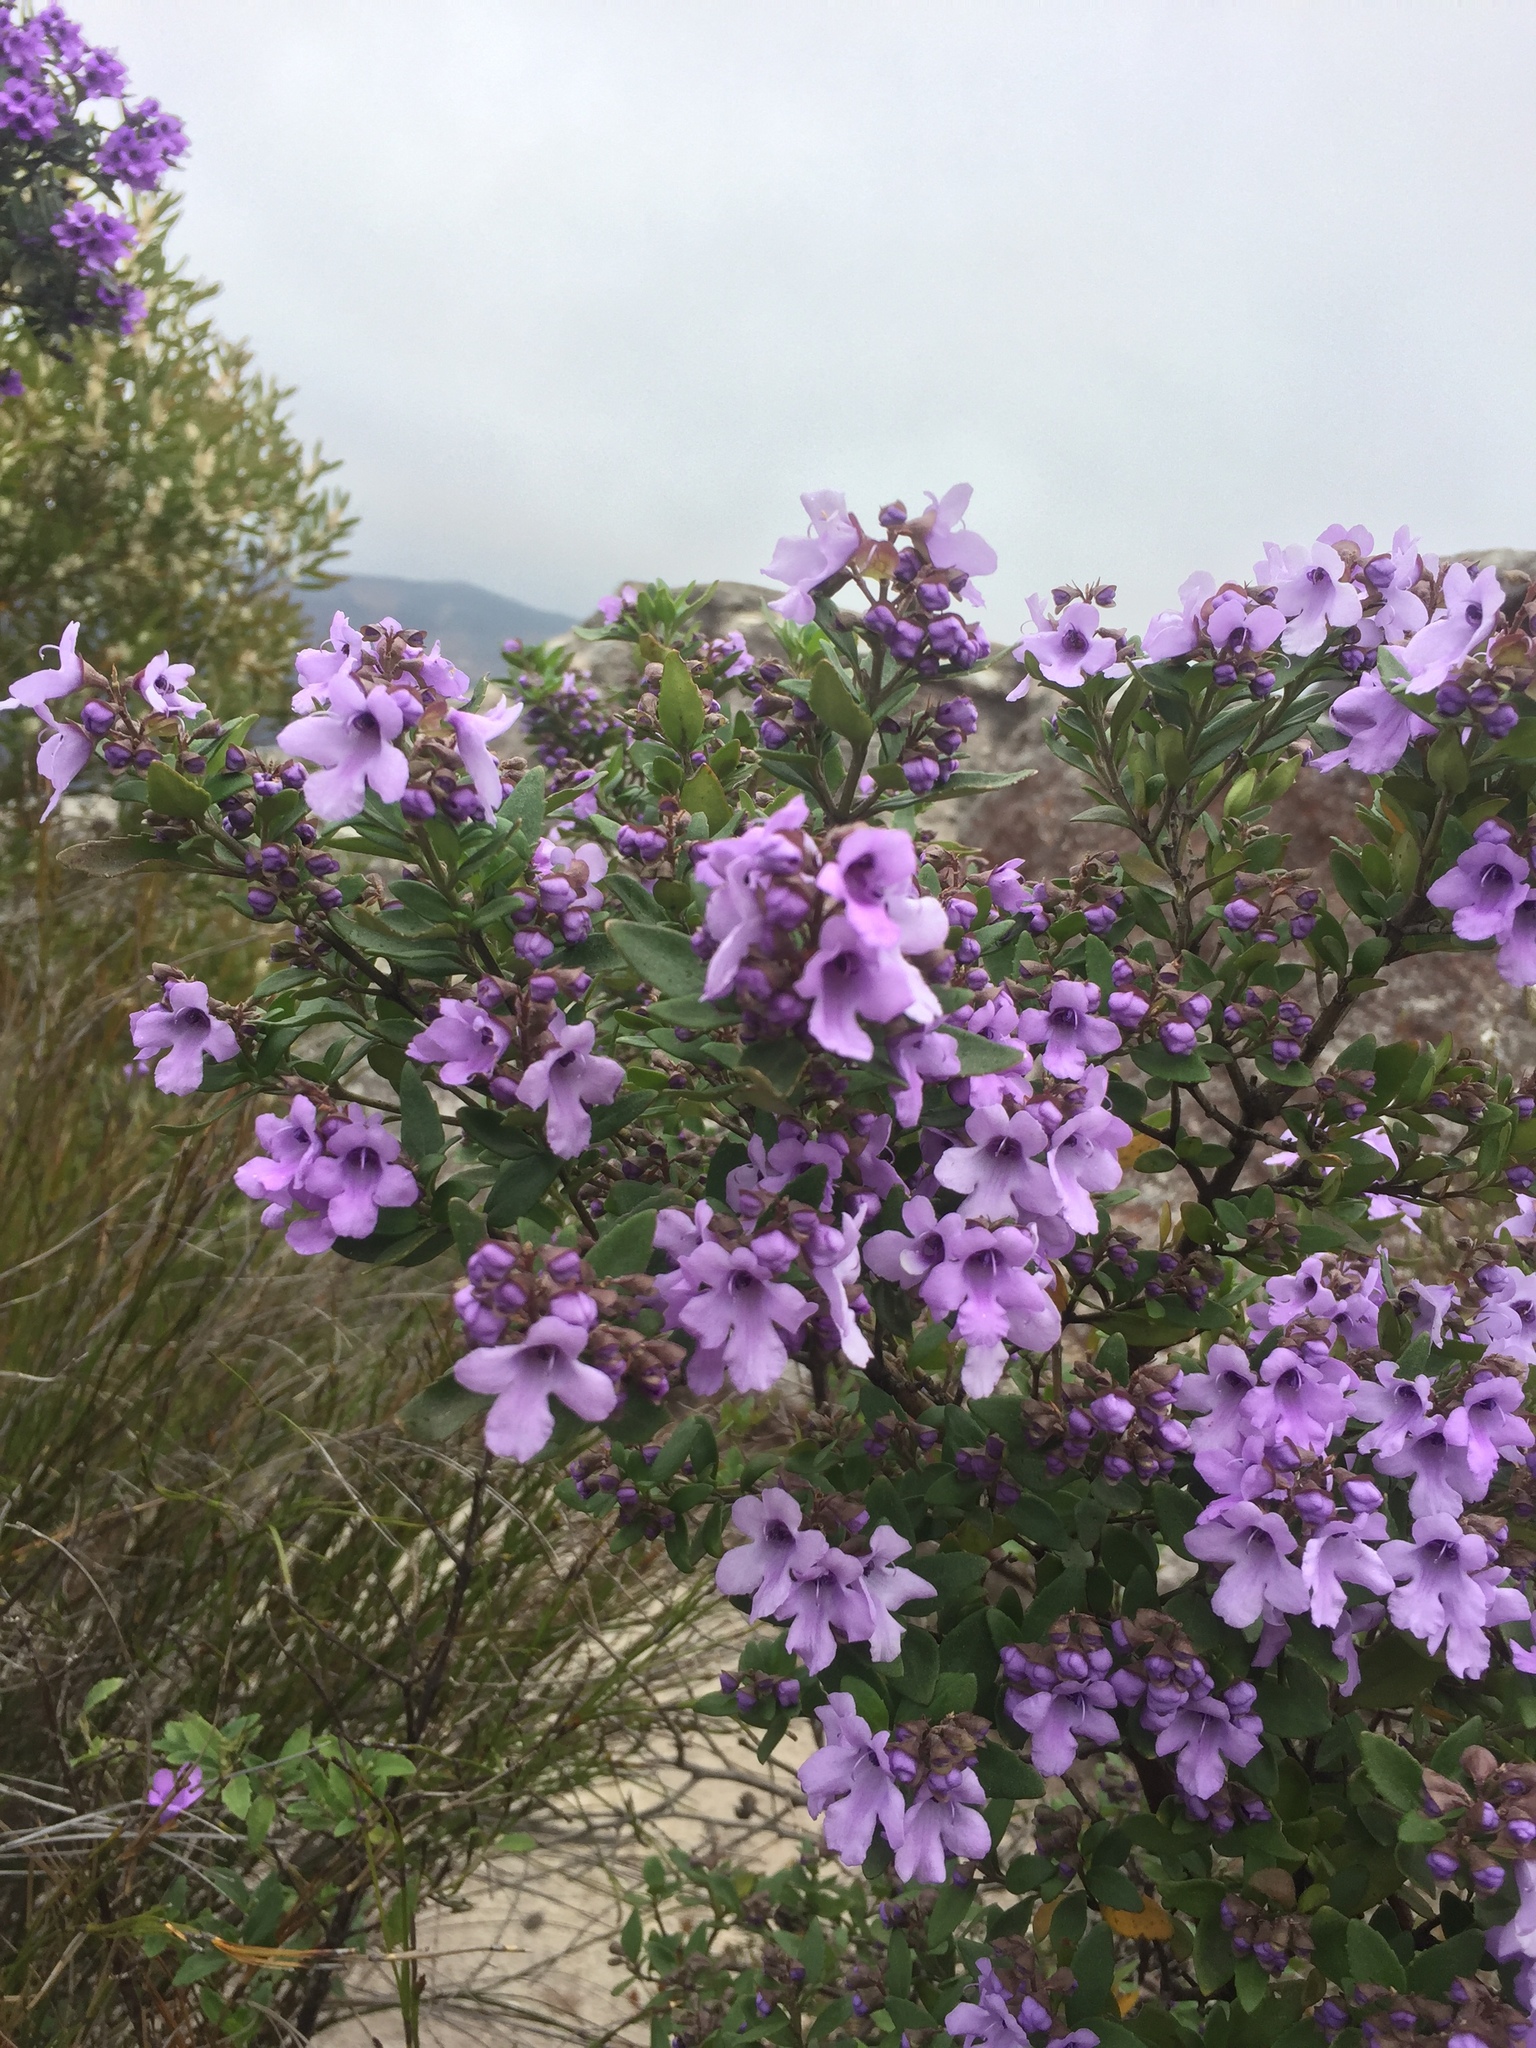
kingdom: Plantae
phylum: Tracheophyta
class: Magnoliopsida
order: Lamiales
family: Lamiaceae
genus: Prostanthera
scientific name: Prostanthera caerulea
